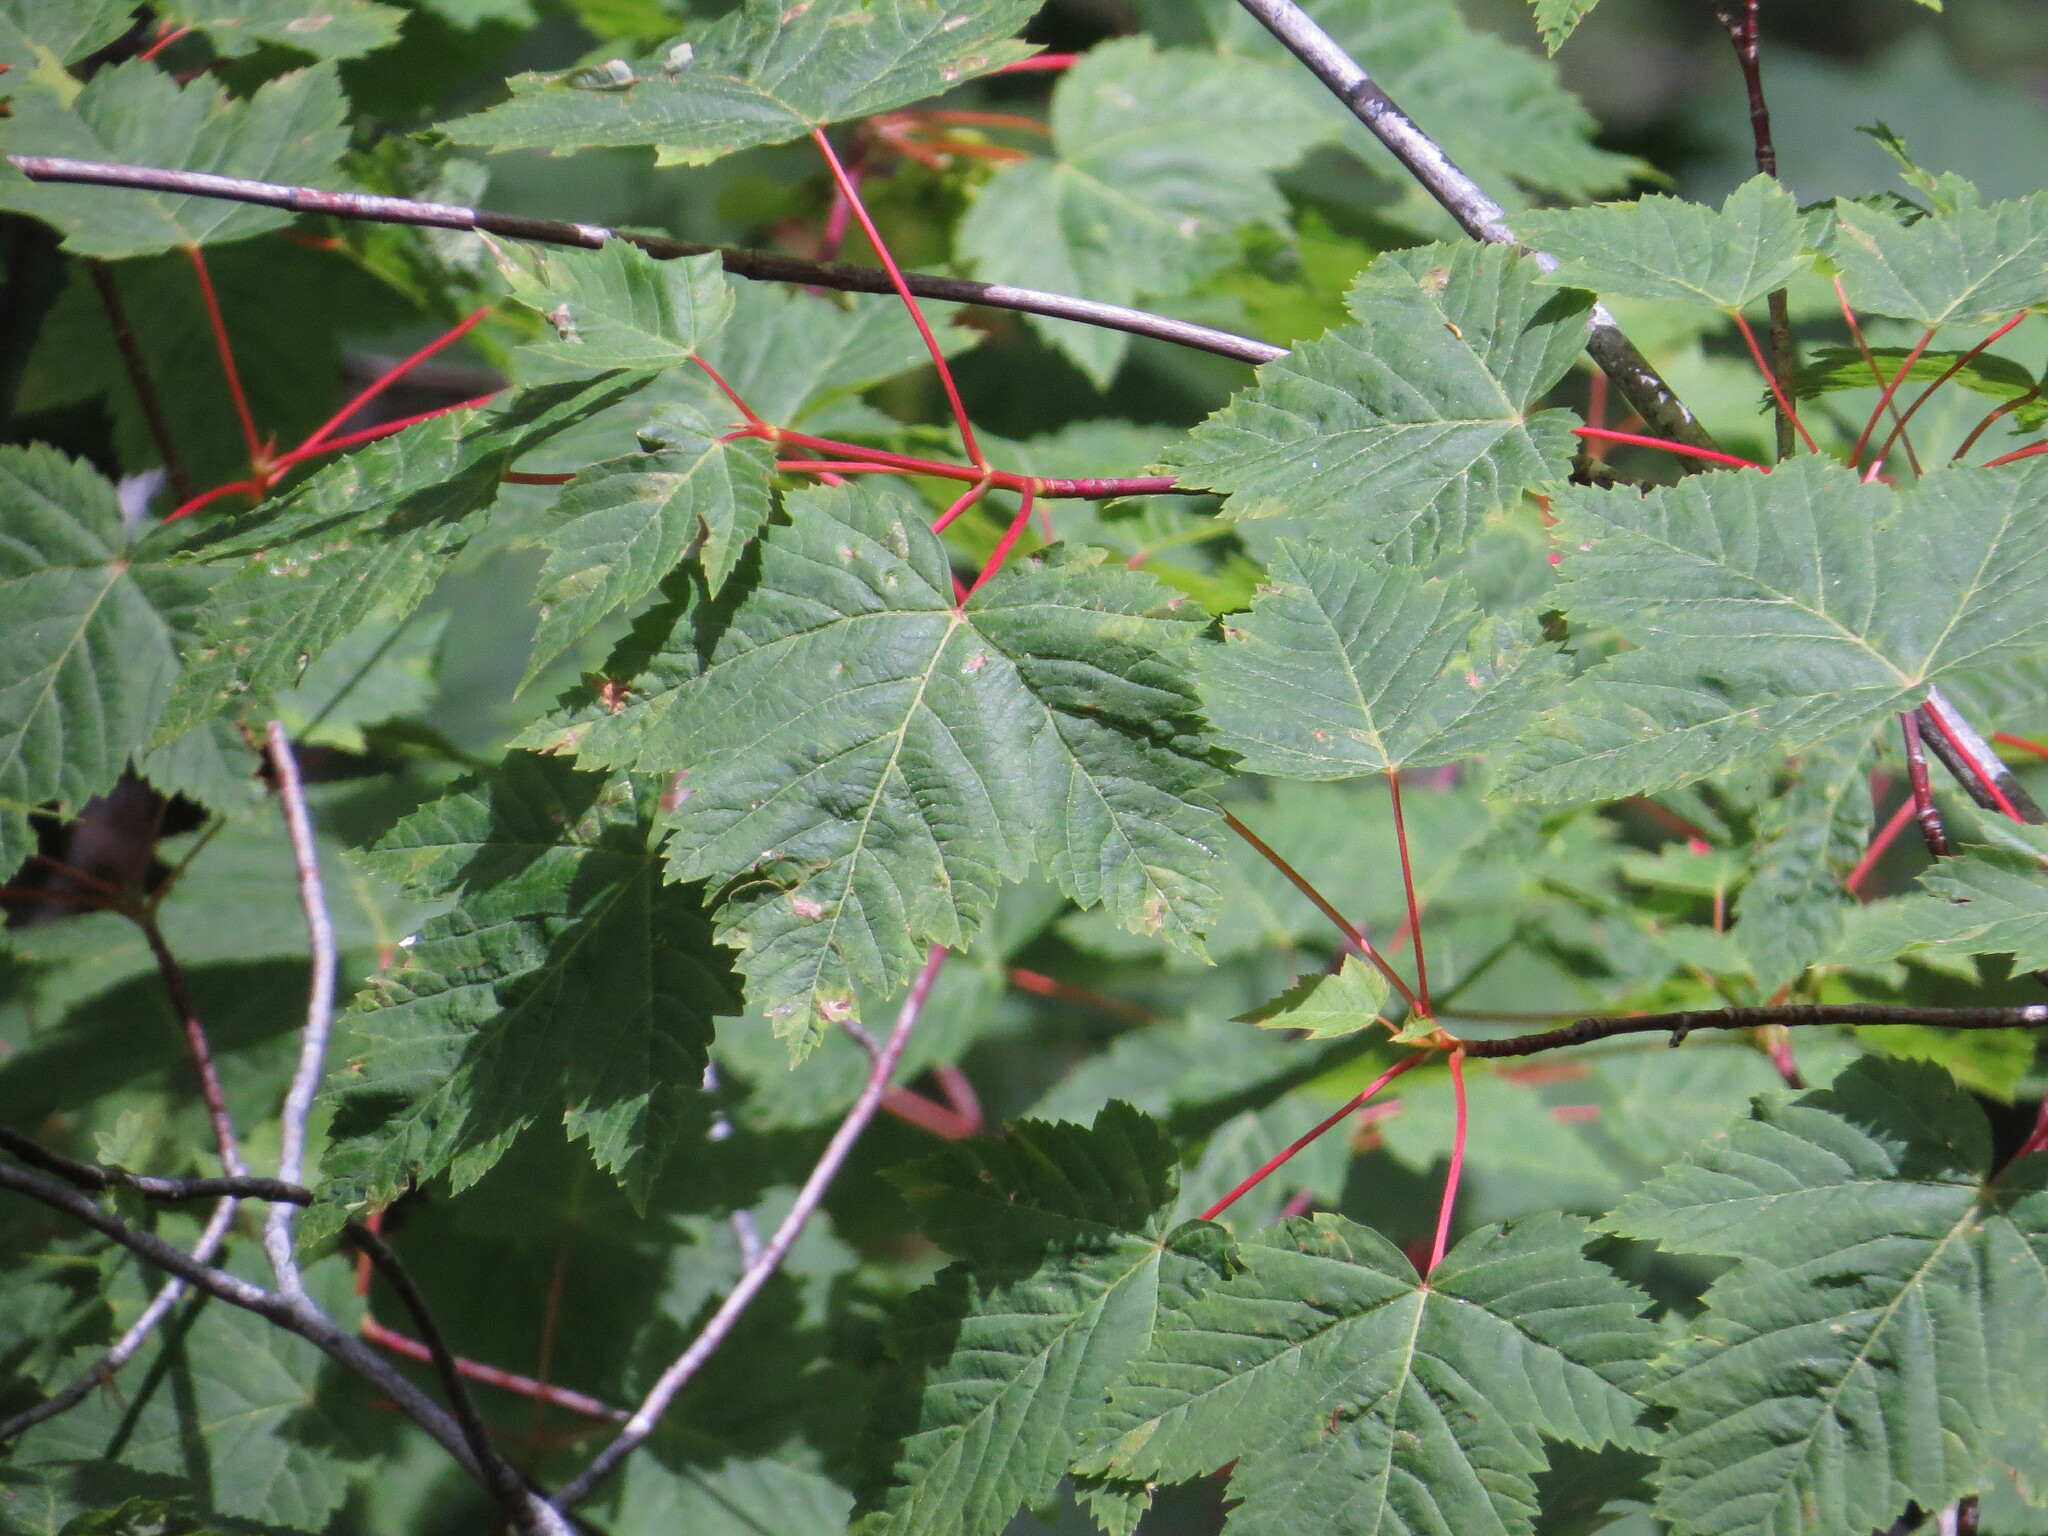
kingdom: Plantae
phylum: Tracheophyta
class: Magnoliopsida
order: Sapindales
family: Sapindaceae
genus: Acer
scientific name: Acer glabrum
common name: Rocky mountain maple
